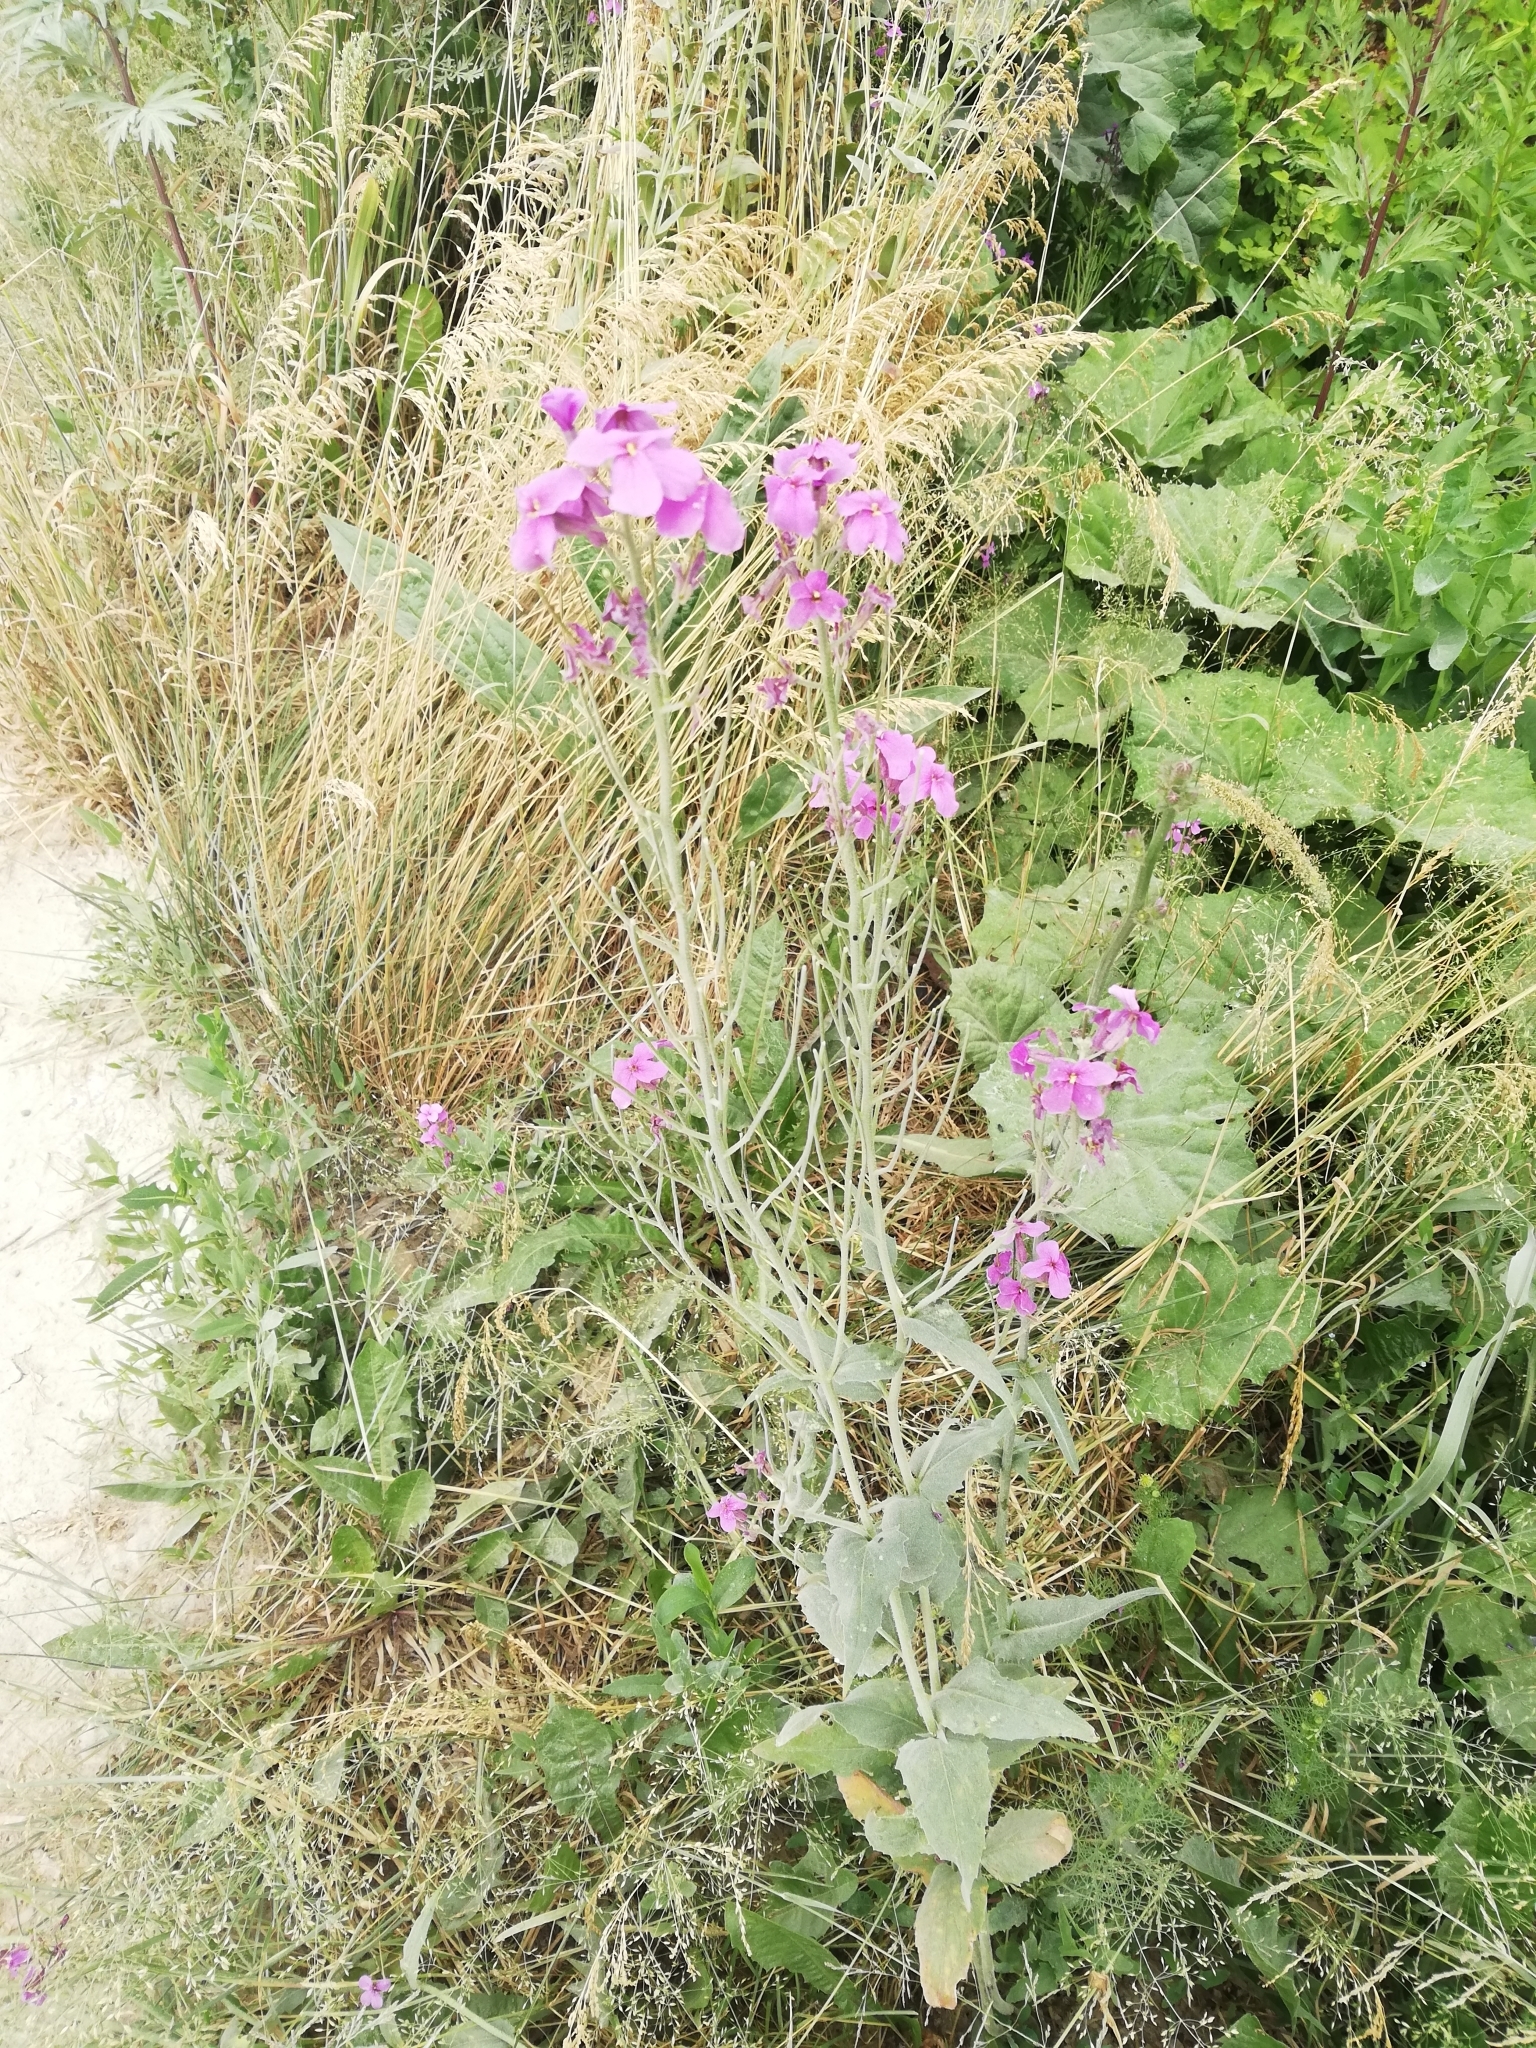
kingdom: Plantae
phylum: Tracheophyta
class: Magnoliopsida
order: Brassicales
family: Brassicaceae
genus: Hesperis
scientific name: Hesperis
